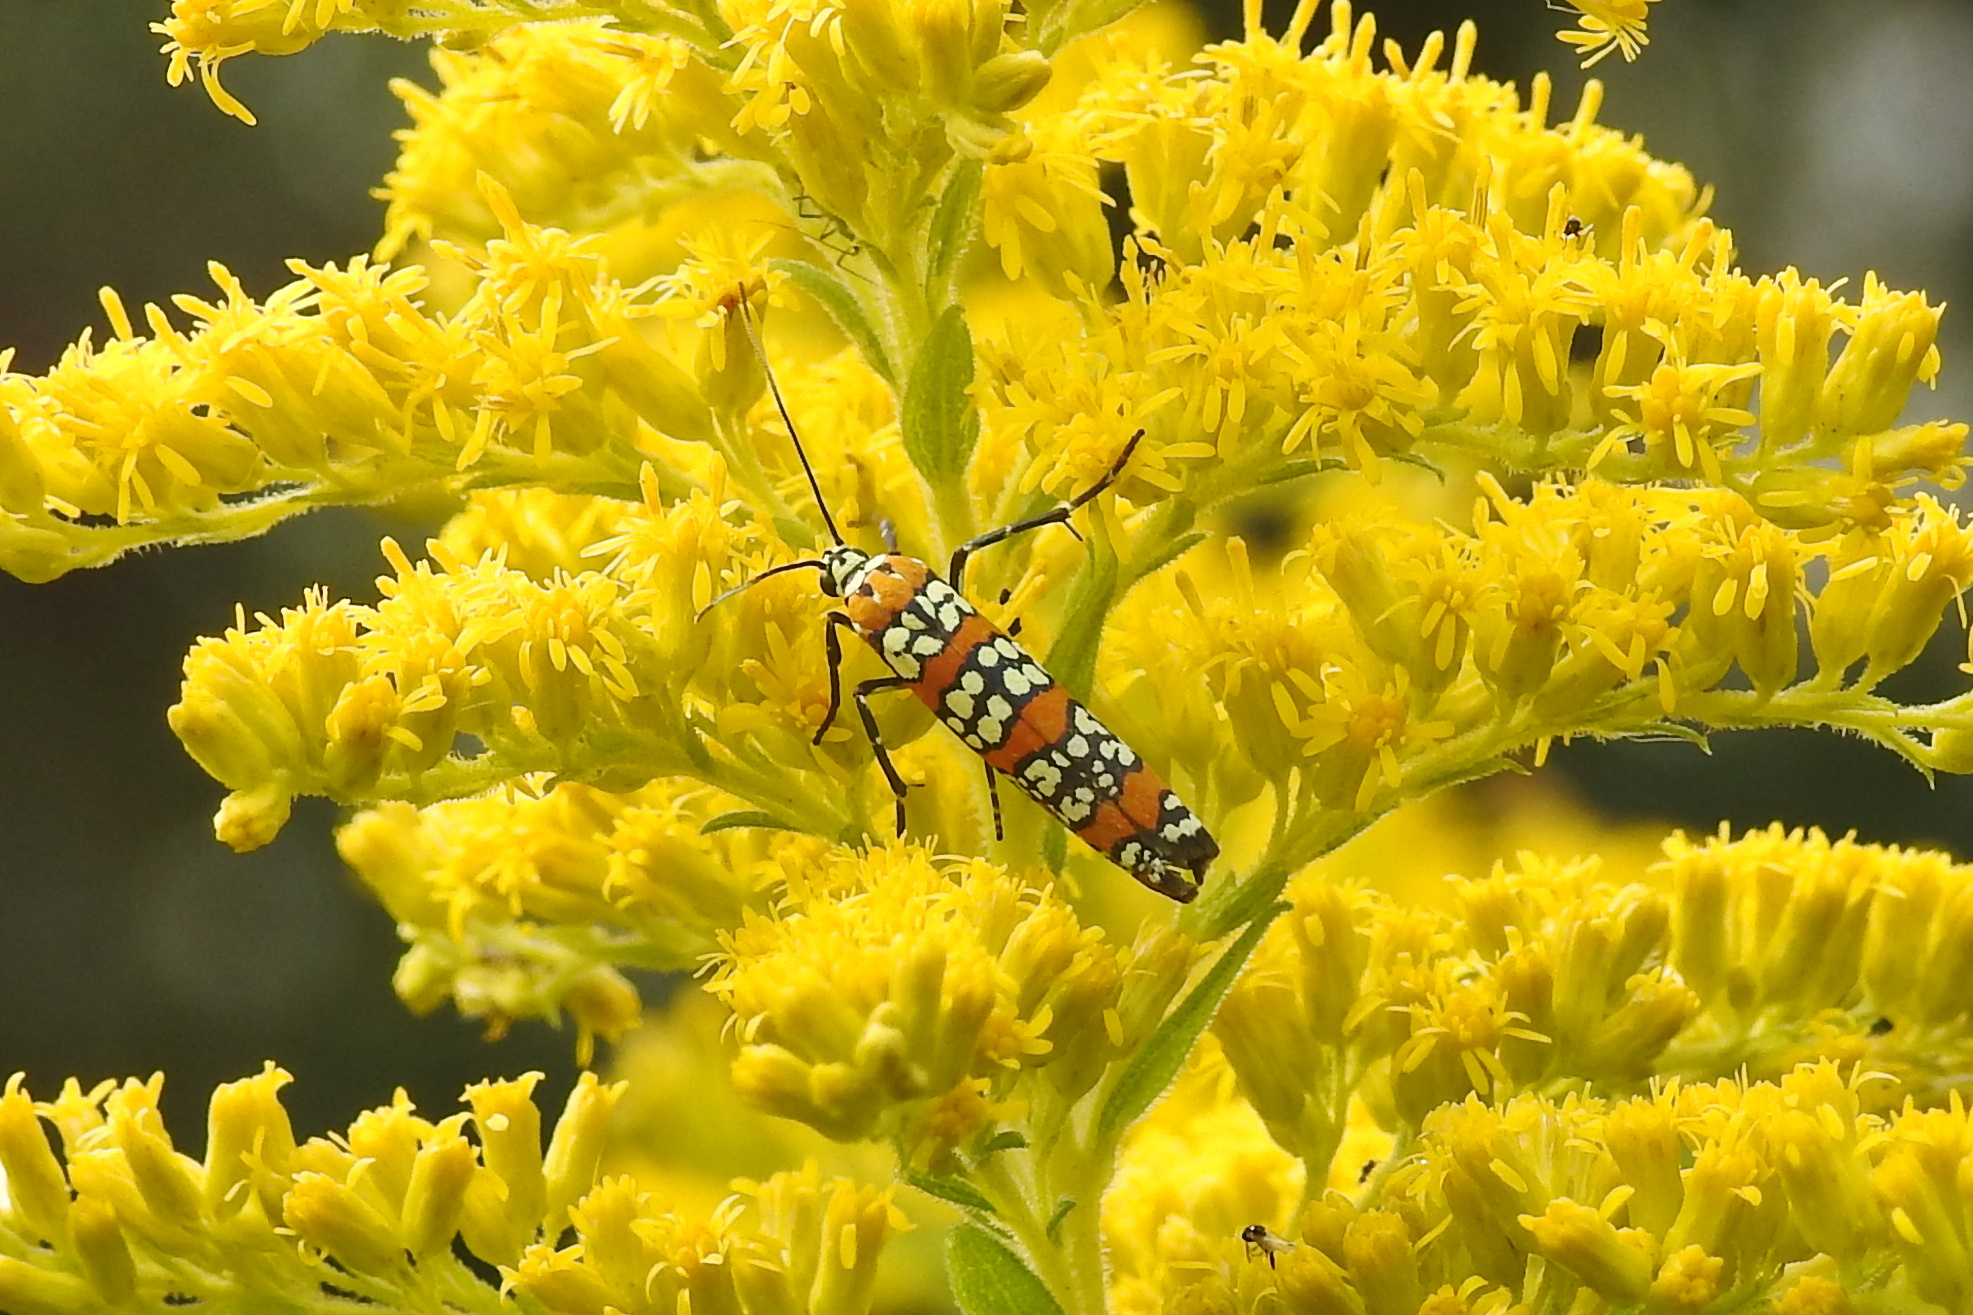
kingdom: Animalia
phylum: Arthropoda
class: Insecta
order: Lepidoptera
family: Attevidae
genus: Atteva
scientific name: Atteva punctella
